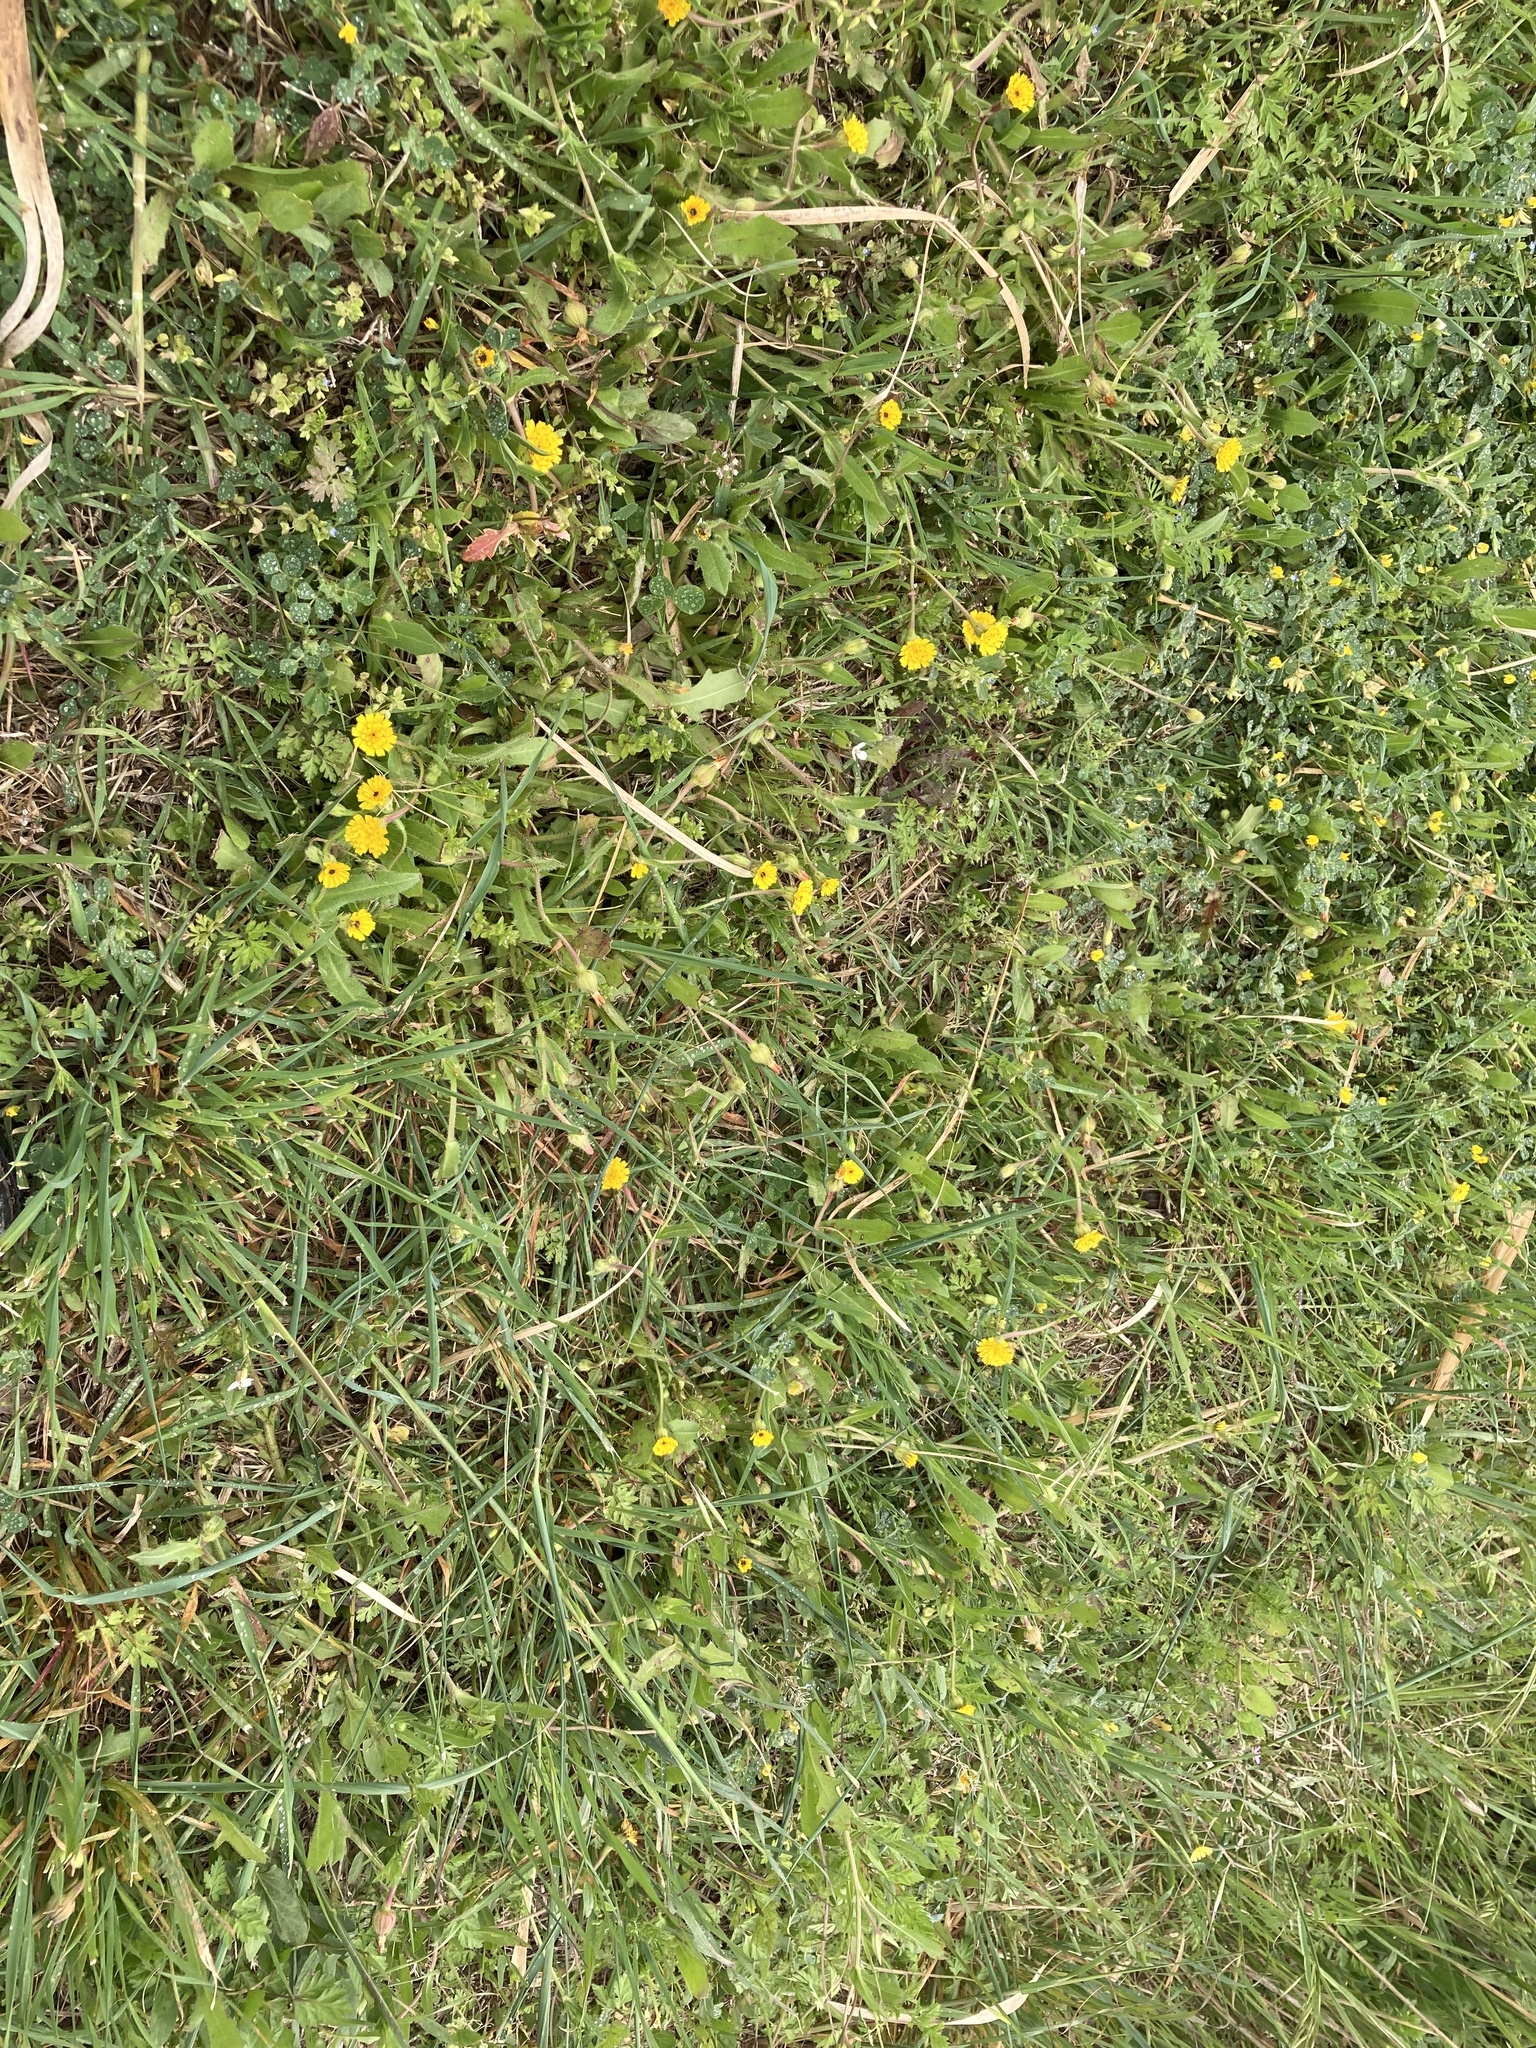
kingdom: Plantae
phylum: Tracheophyta
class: Magnoliopsida
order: Asterales
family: Asteraceae
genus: Hedypnois
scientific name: Hedypnois rhagadioloides
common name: Cretan weed
